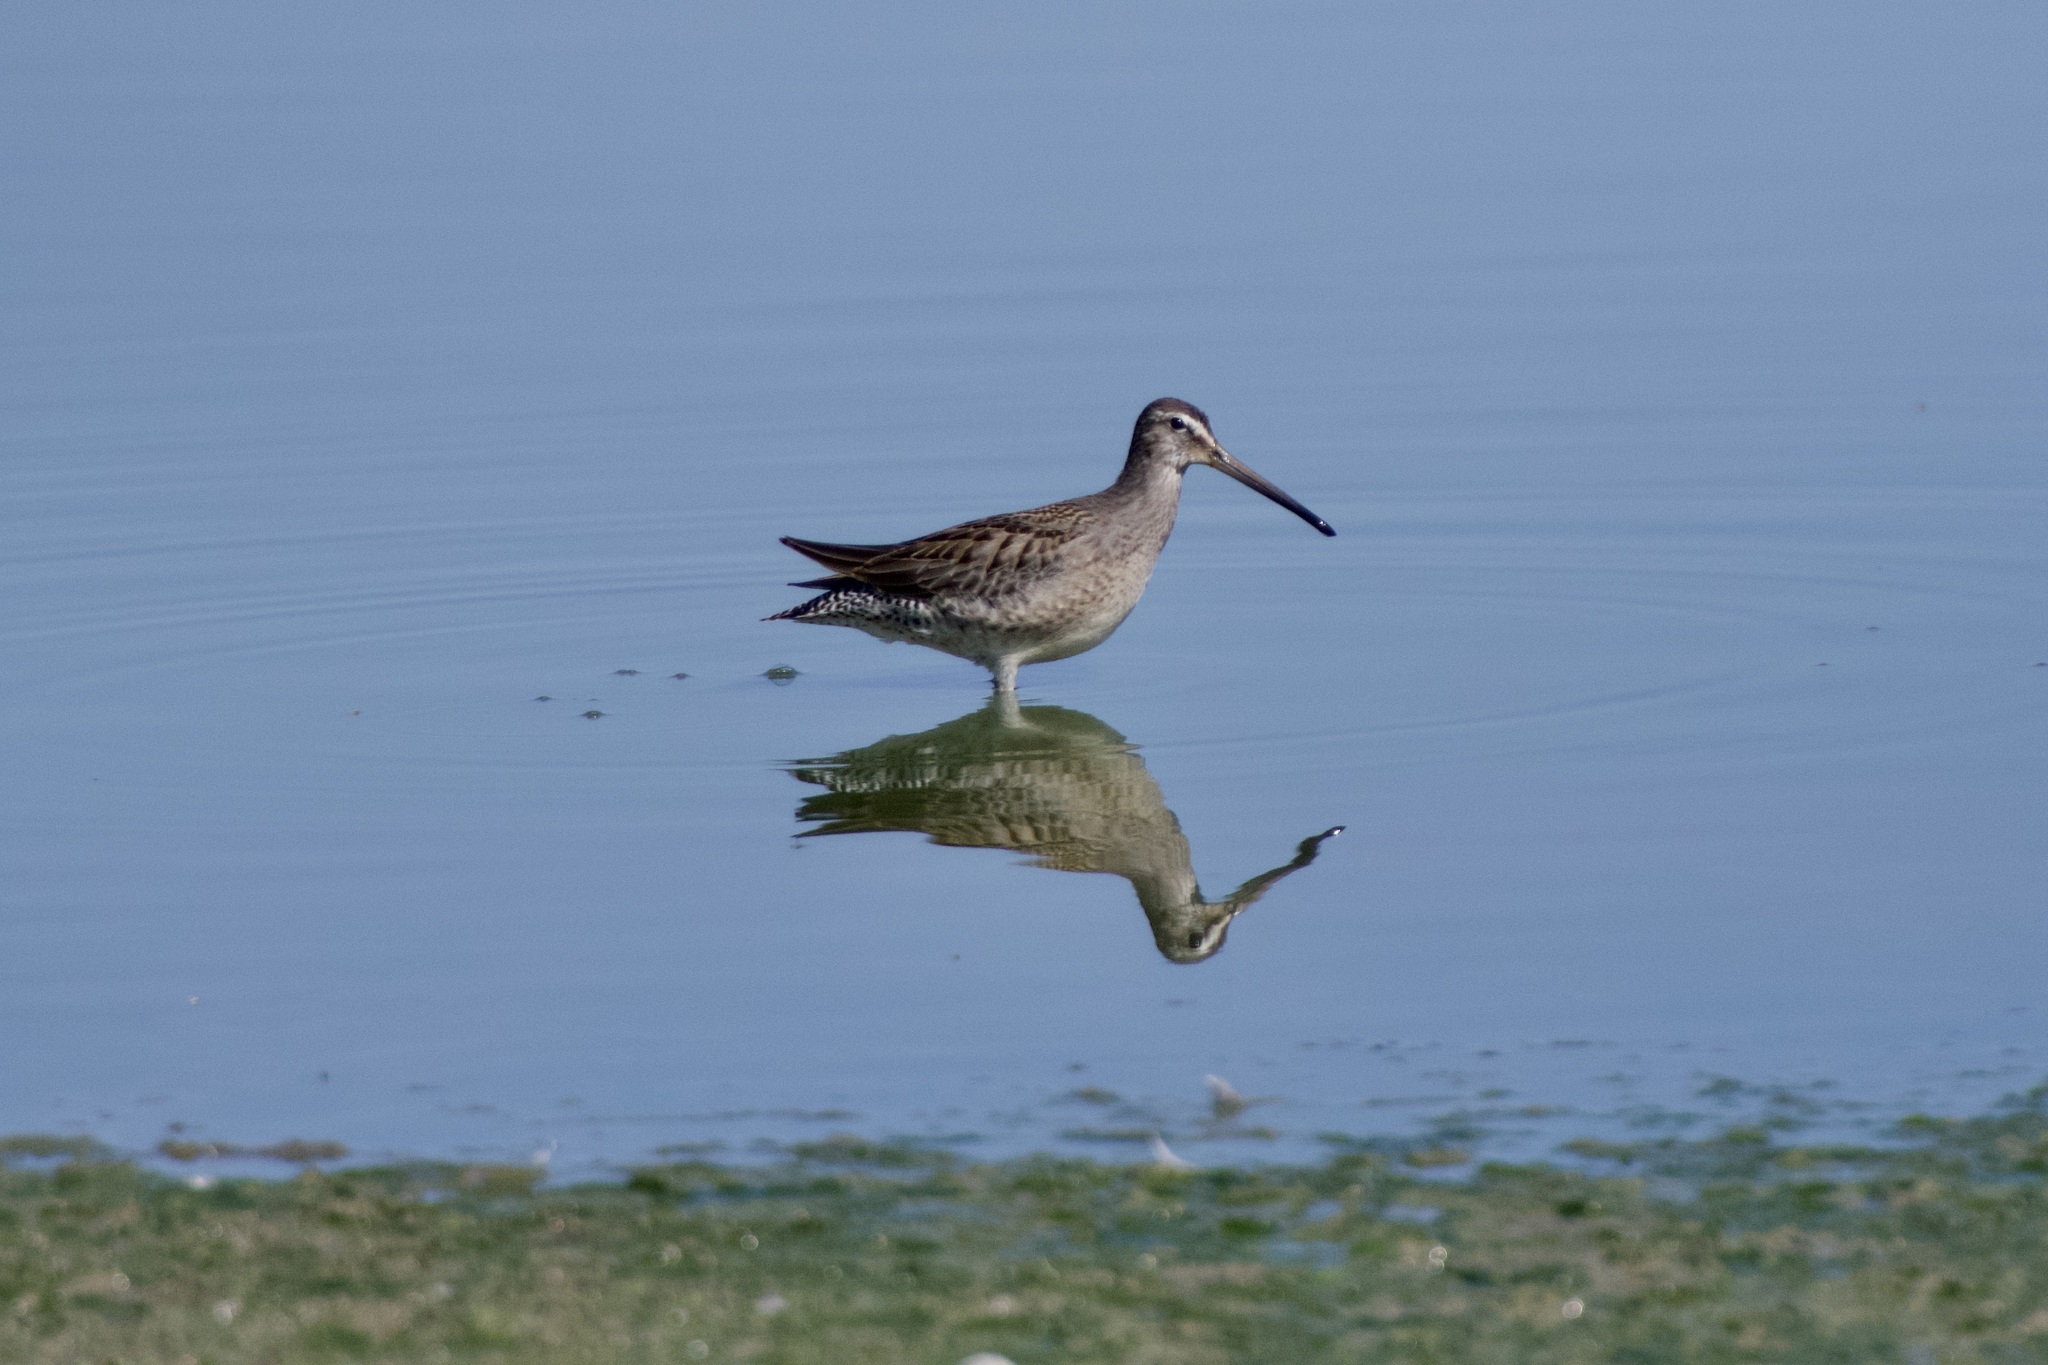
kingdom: Animalia
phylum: Chordata
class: Aves
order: Charadriiformes
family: Scolopacidae
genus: Limnodromus
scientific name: Limnodromus scolopaceus
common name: Long-billed dowitcher
